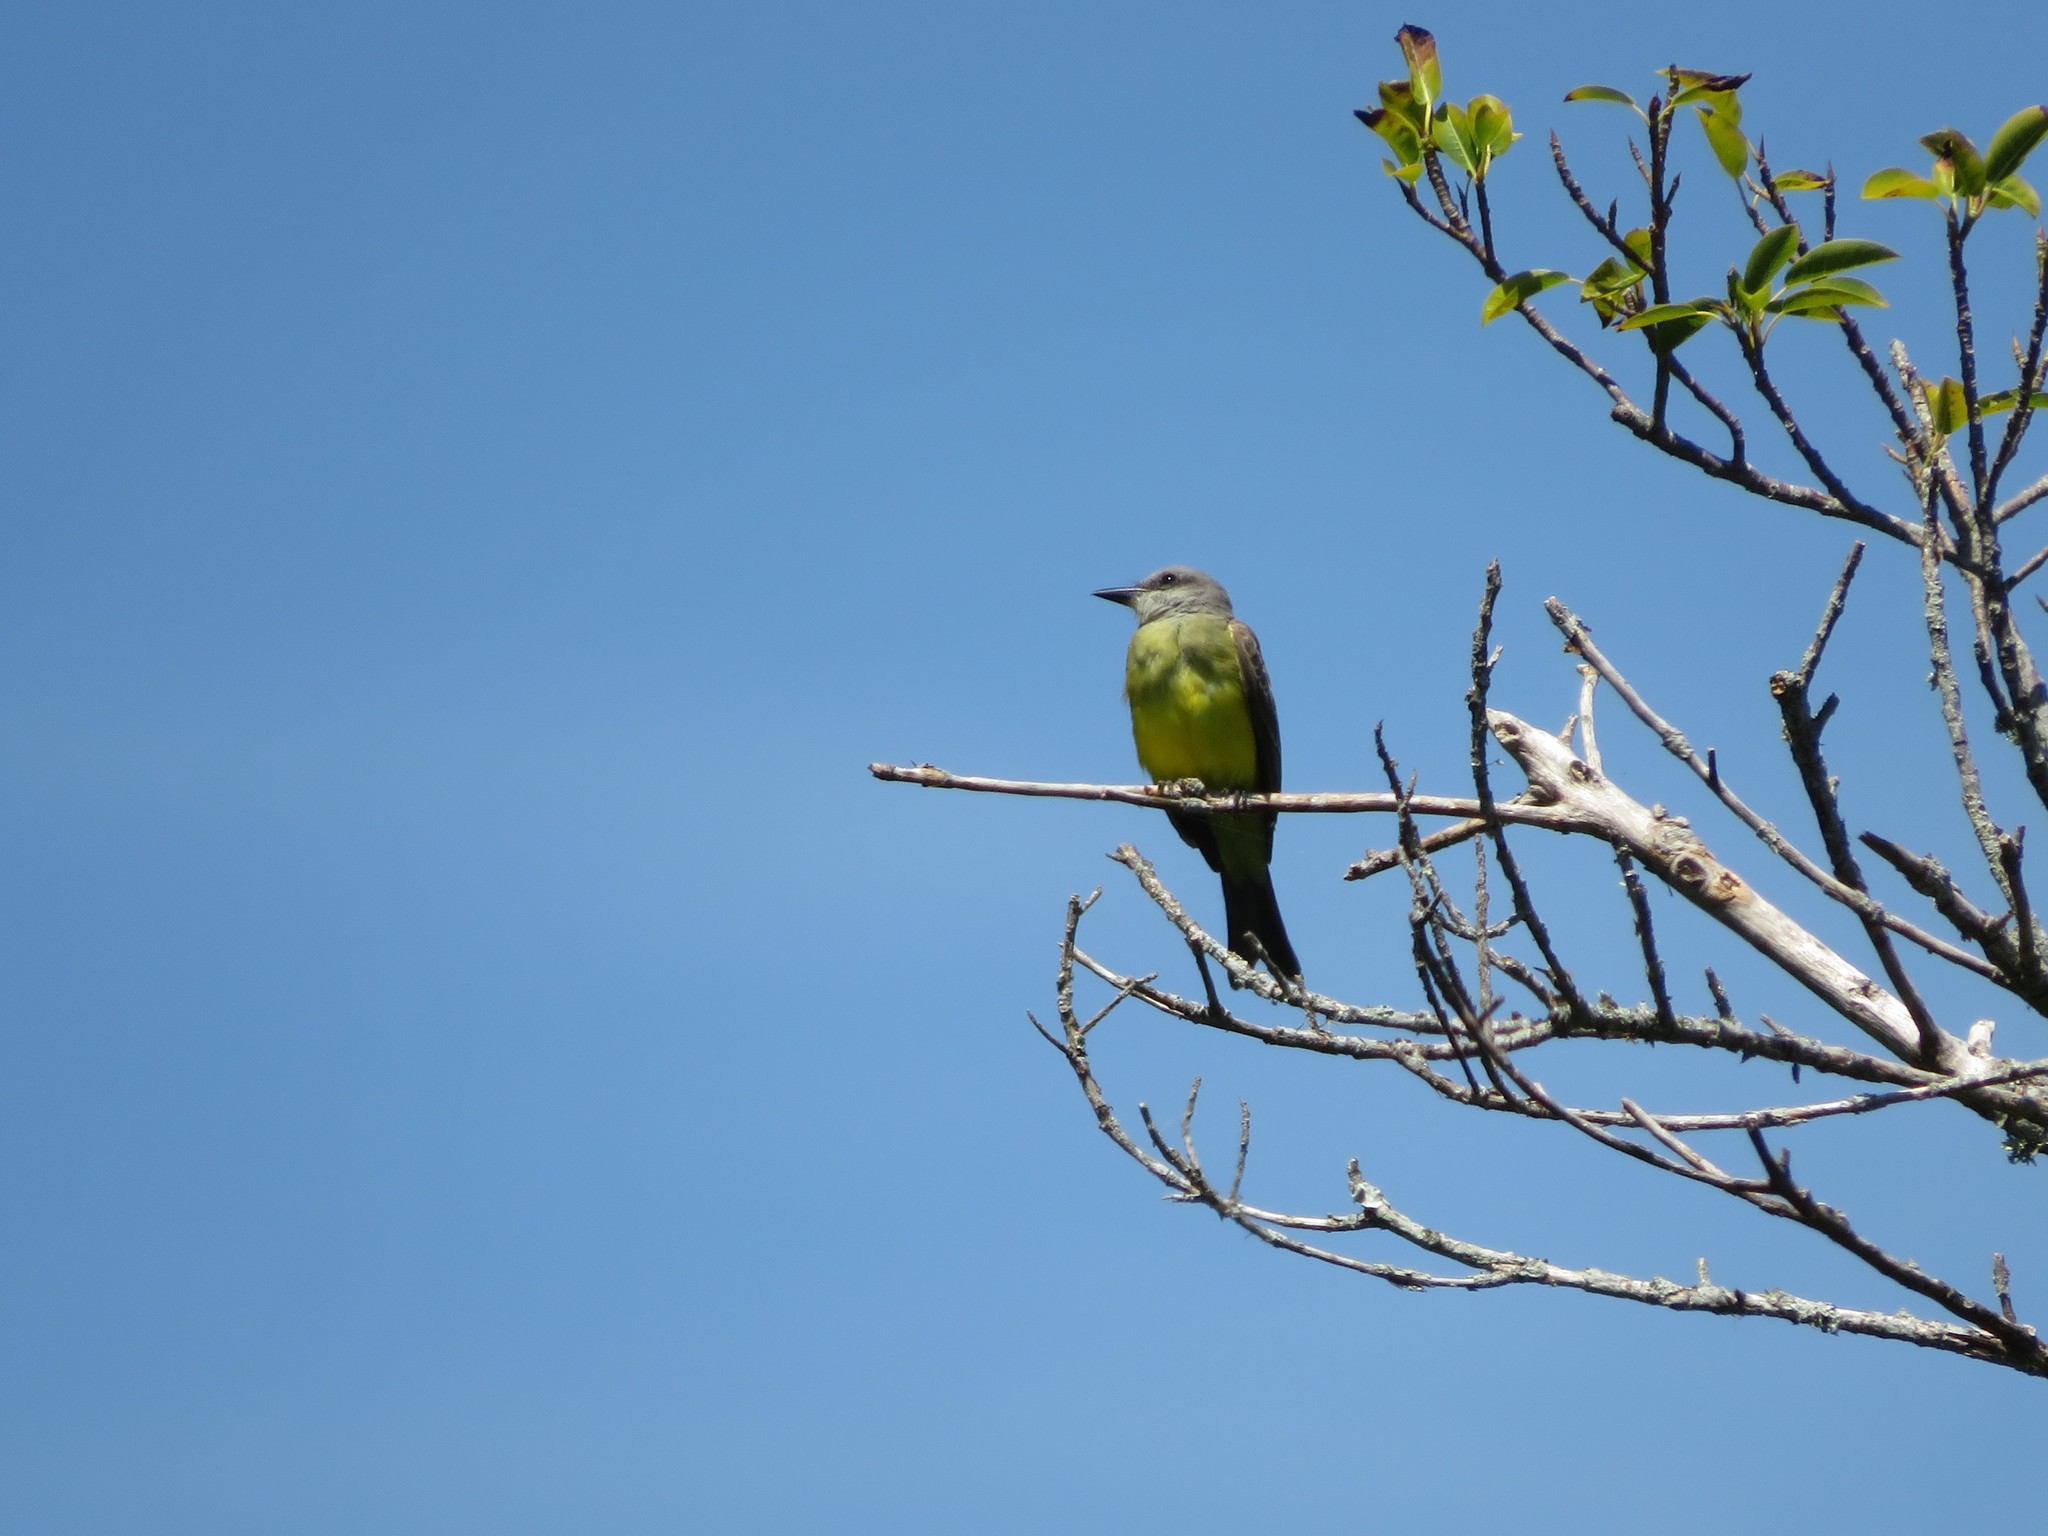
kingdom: Animalia
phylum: Chordata
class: Aves
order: Passeriformes
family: Tyrannidae
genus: Tyrannus
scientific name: Tyrannus melancholicus
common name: Tropical kingbird
